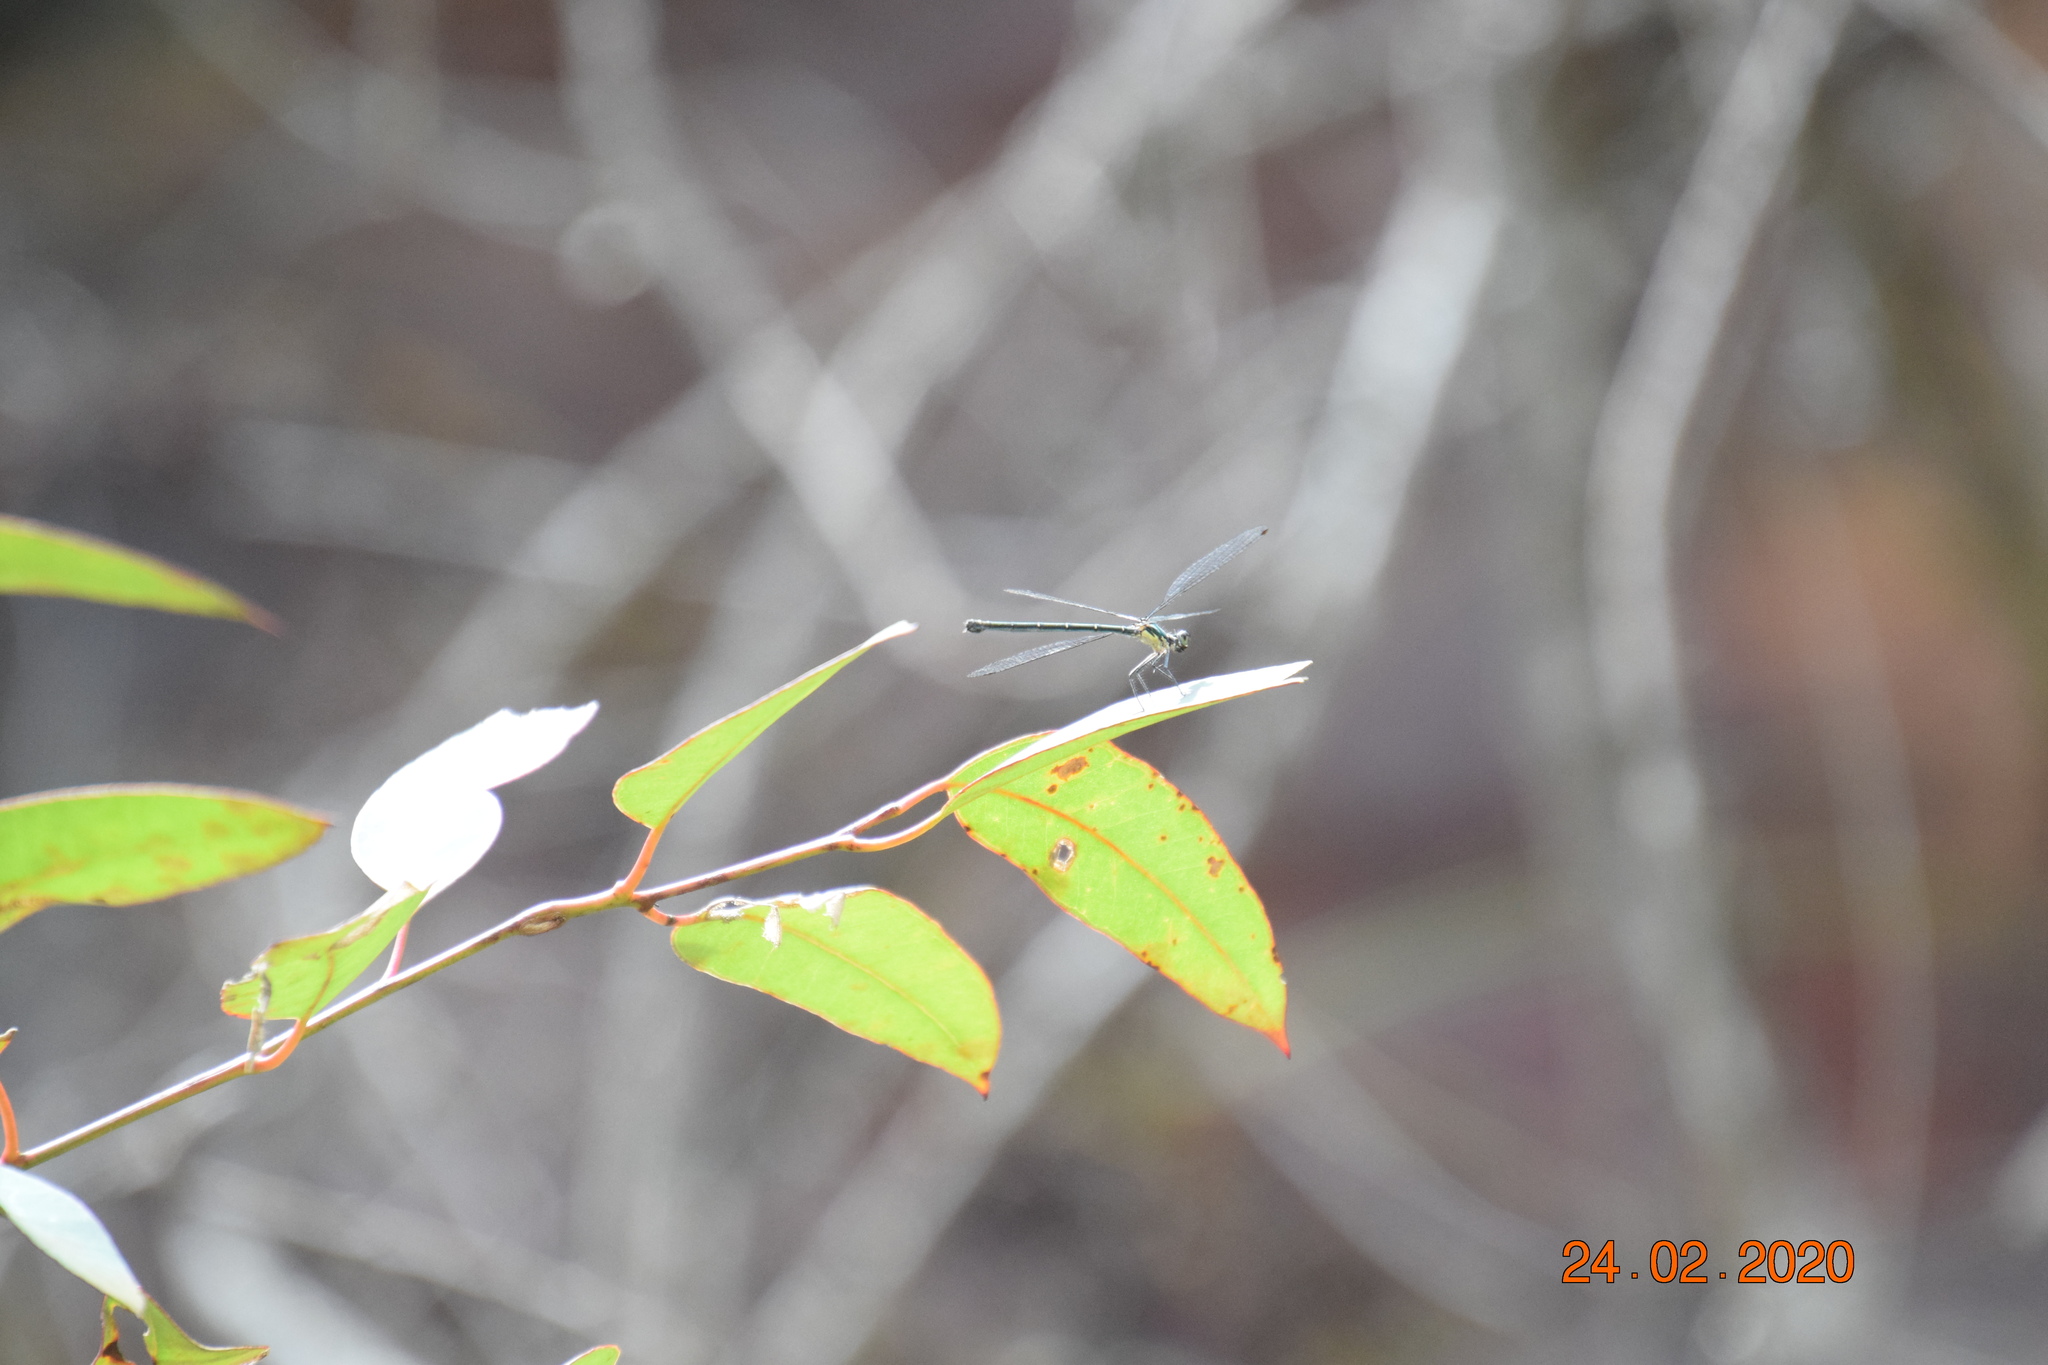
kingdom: Animalia
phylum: Arthropoda
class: Insecta
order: Odonata
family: Argiolestidae
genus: Austroargiolestes
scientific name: Austroargiolestes icteromelas
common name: Common flatwing
